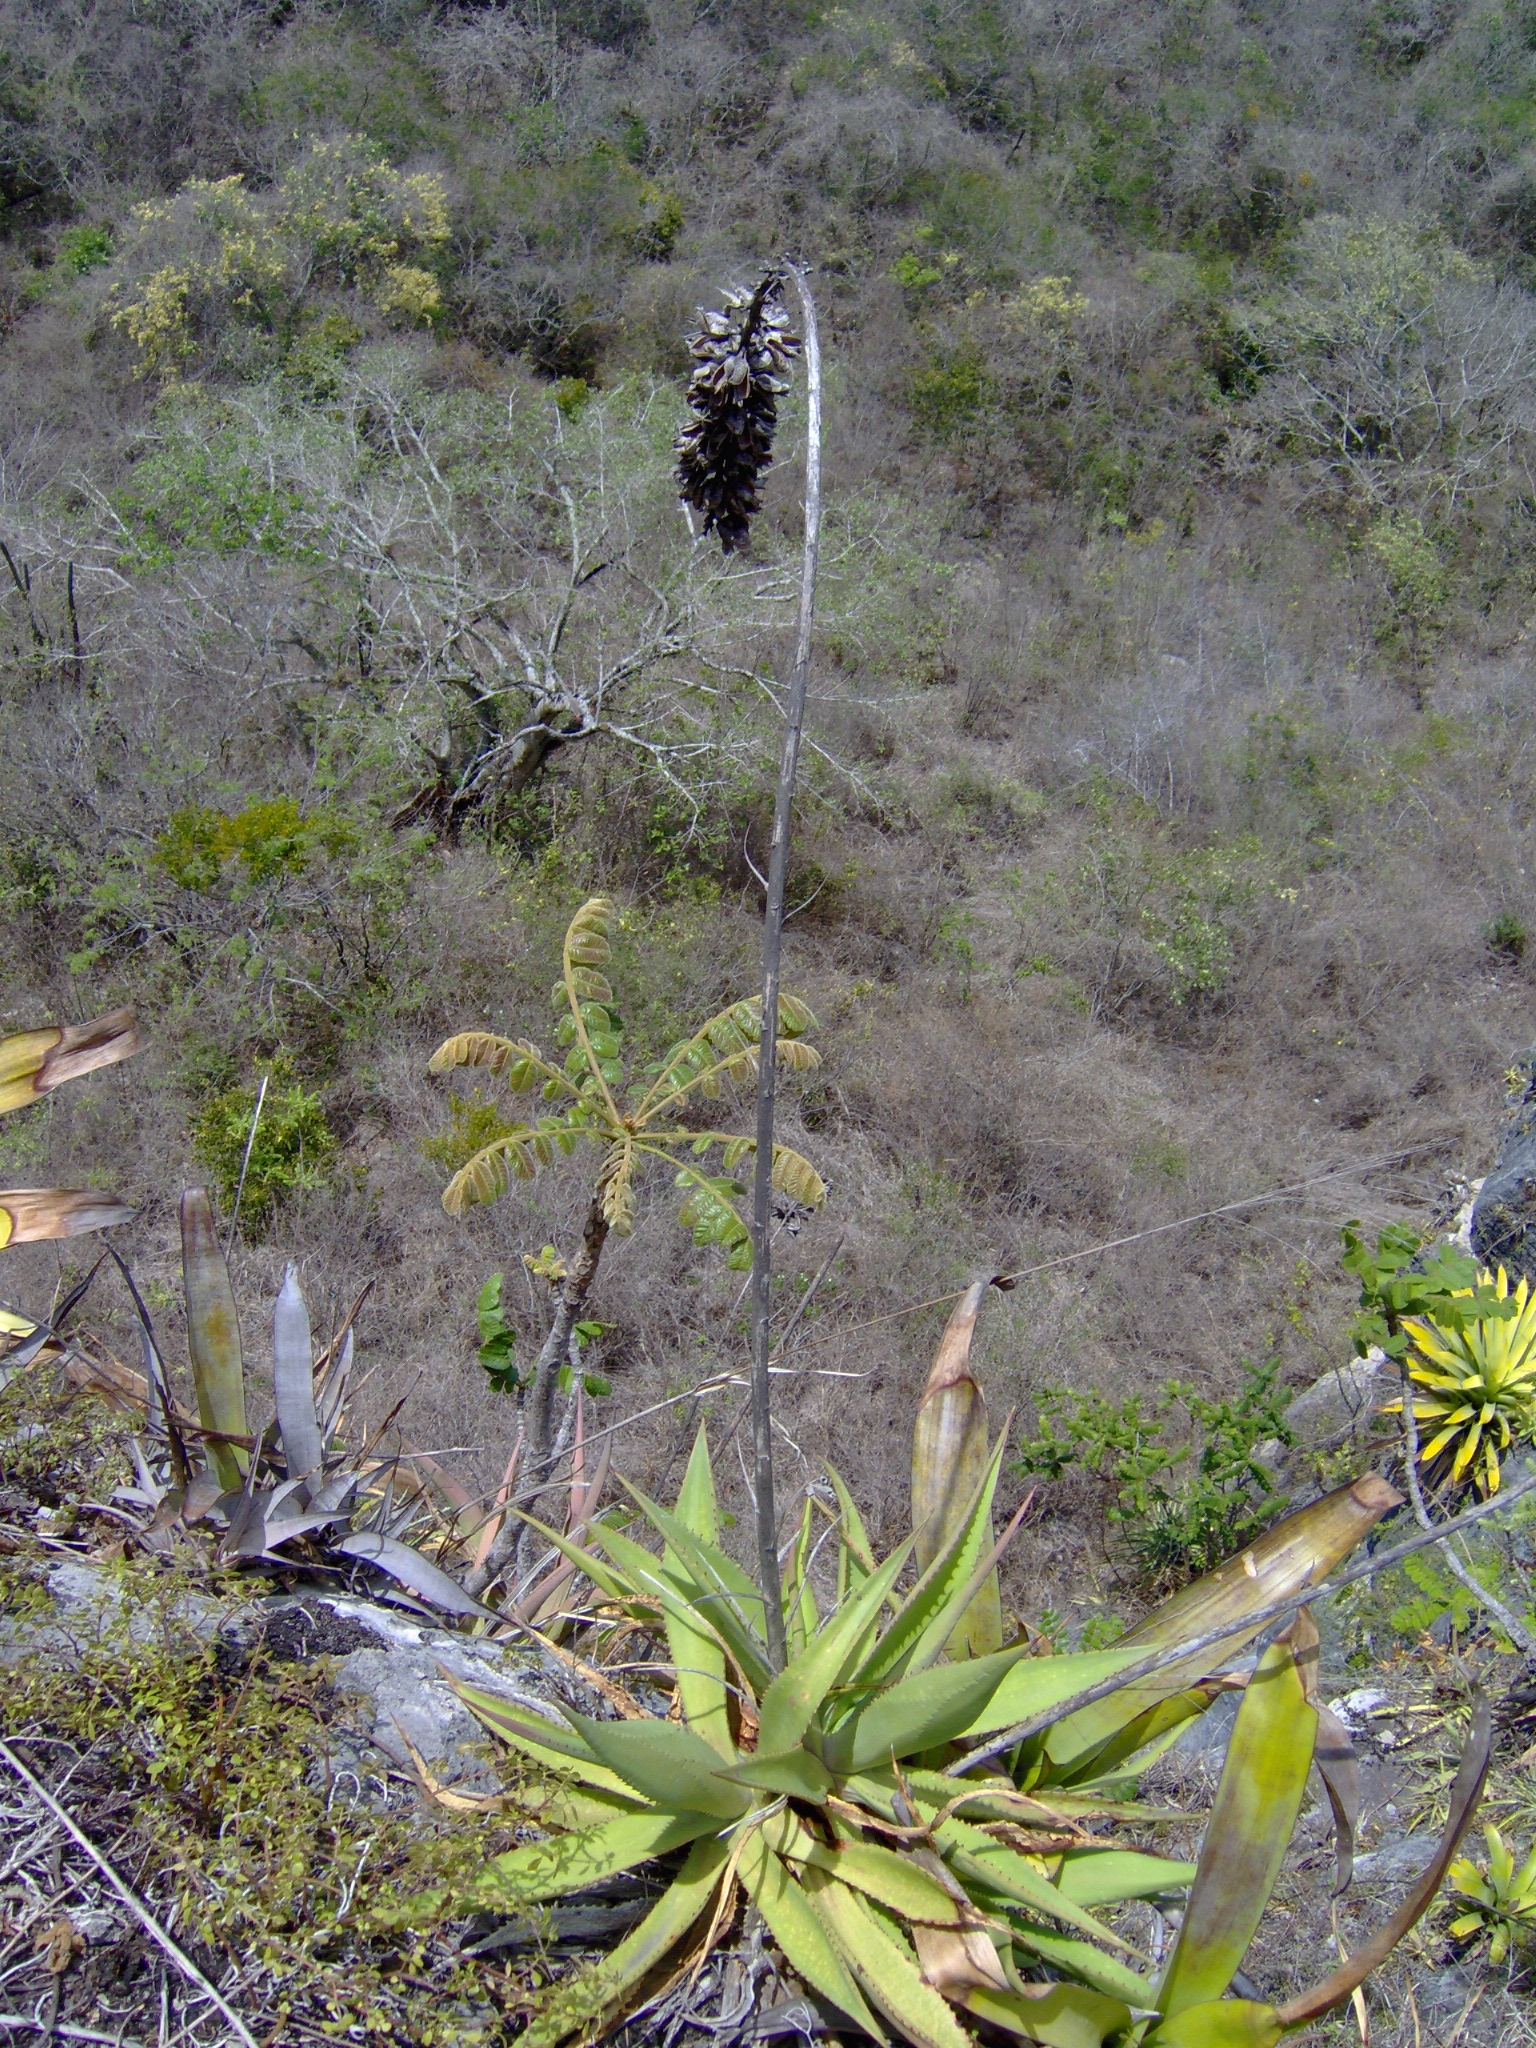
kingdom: Plantae
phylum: Tracheophyta
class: Liliopsida
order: Asparagales
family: Asparagaceae
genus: Agave
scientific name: Agave pendula
